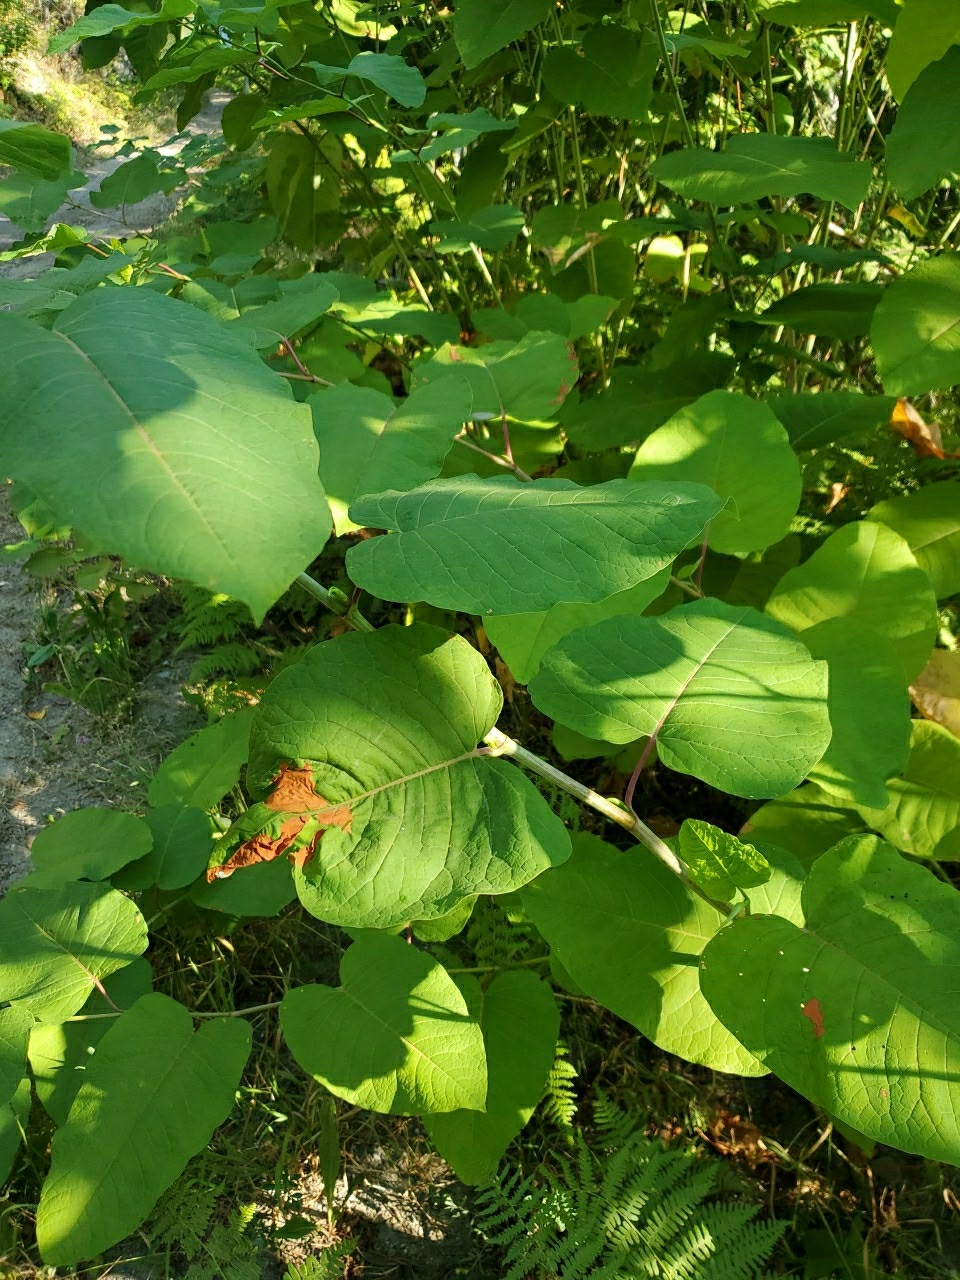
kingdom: Plantae
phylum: Tracheophyta
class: Magnoliopsida
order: Caryophyllales
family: Polygonaceae
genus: Reynoutria
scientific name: Reynoutria sachalinensis
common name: Giant knotweed
